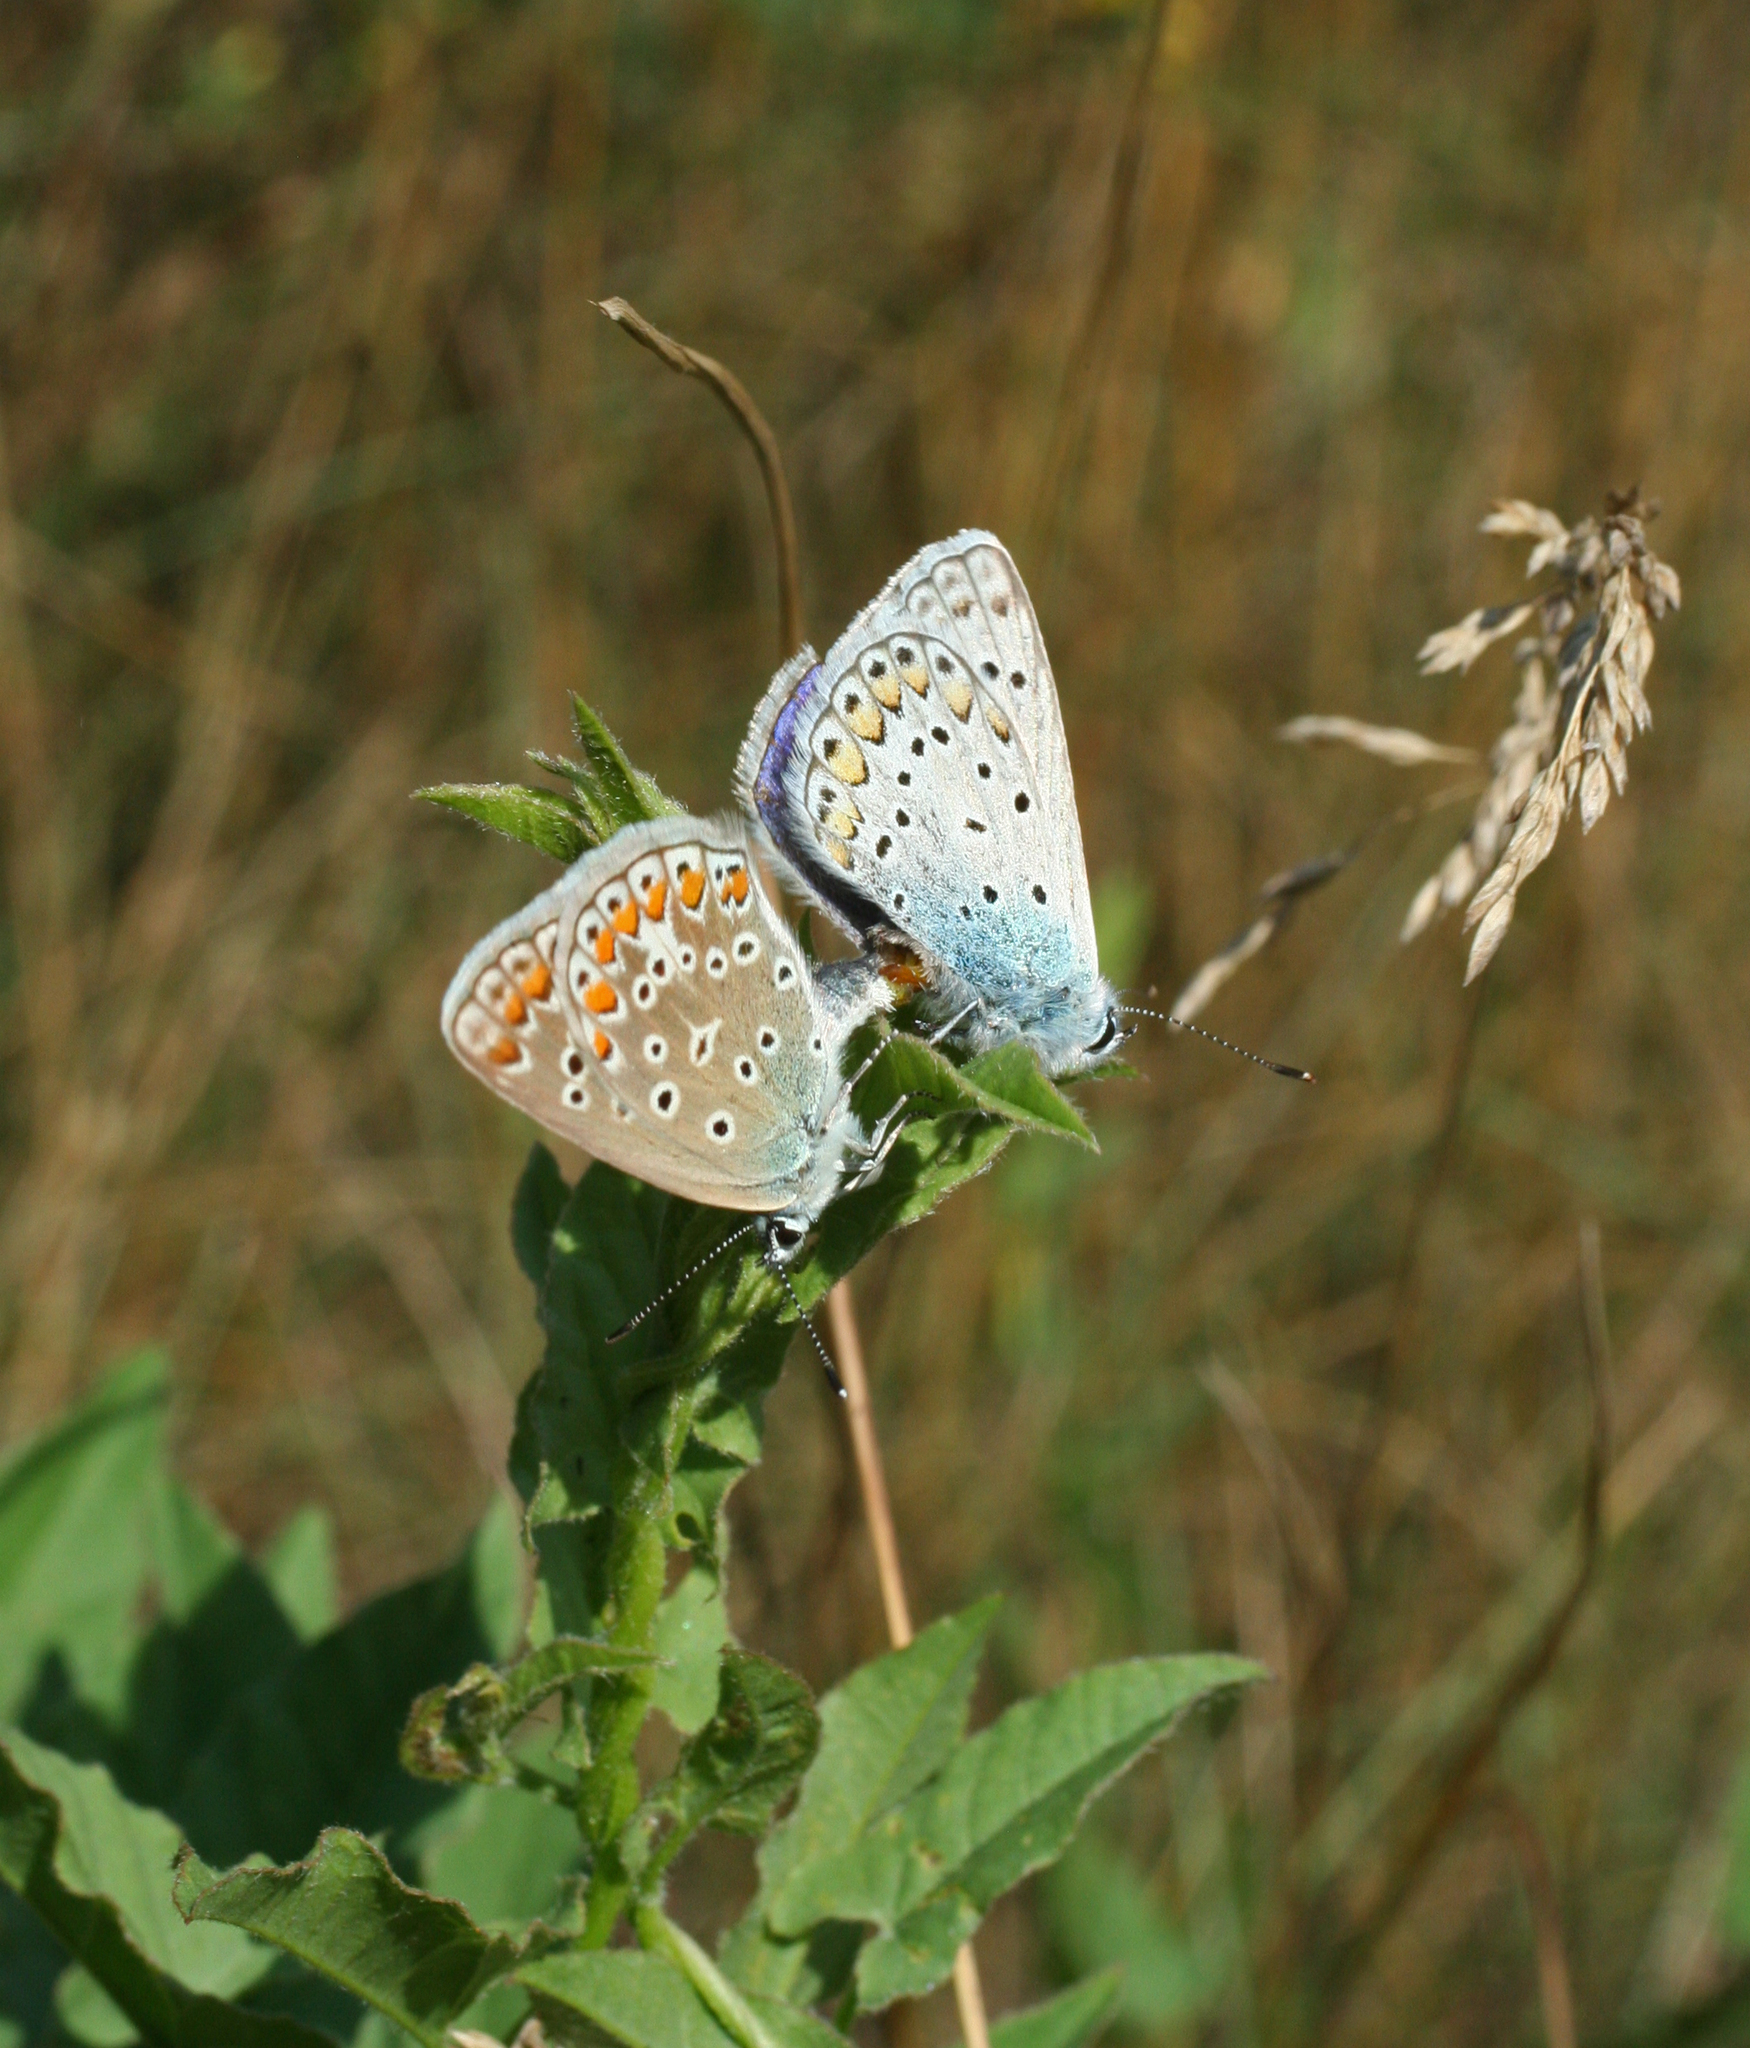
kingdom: Animalia
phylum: Arthropoda
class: Insecta
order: Lepidoptera
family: Lycaenidae
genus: Polyommatus
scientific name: Polyommatus icarus
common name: Common blue
